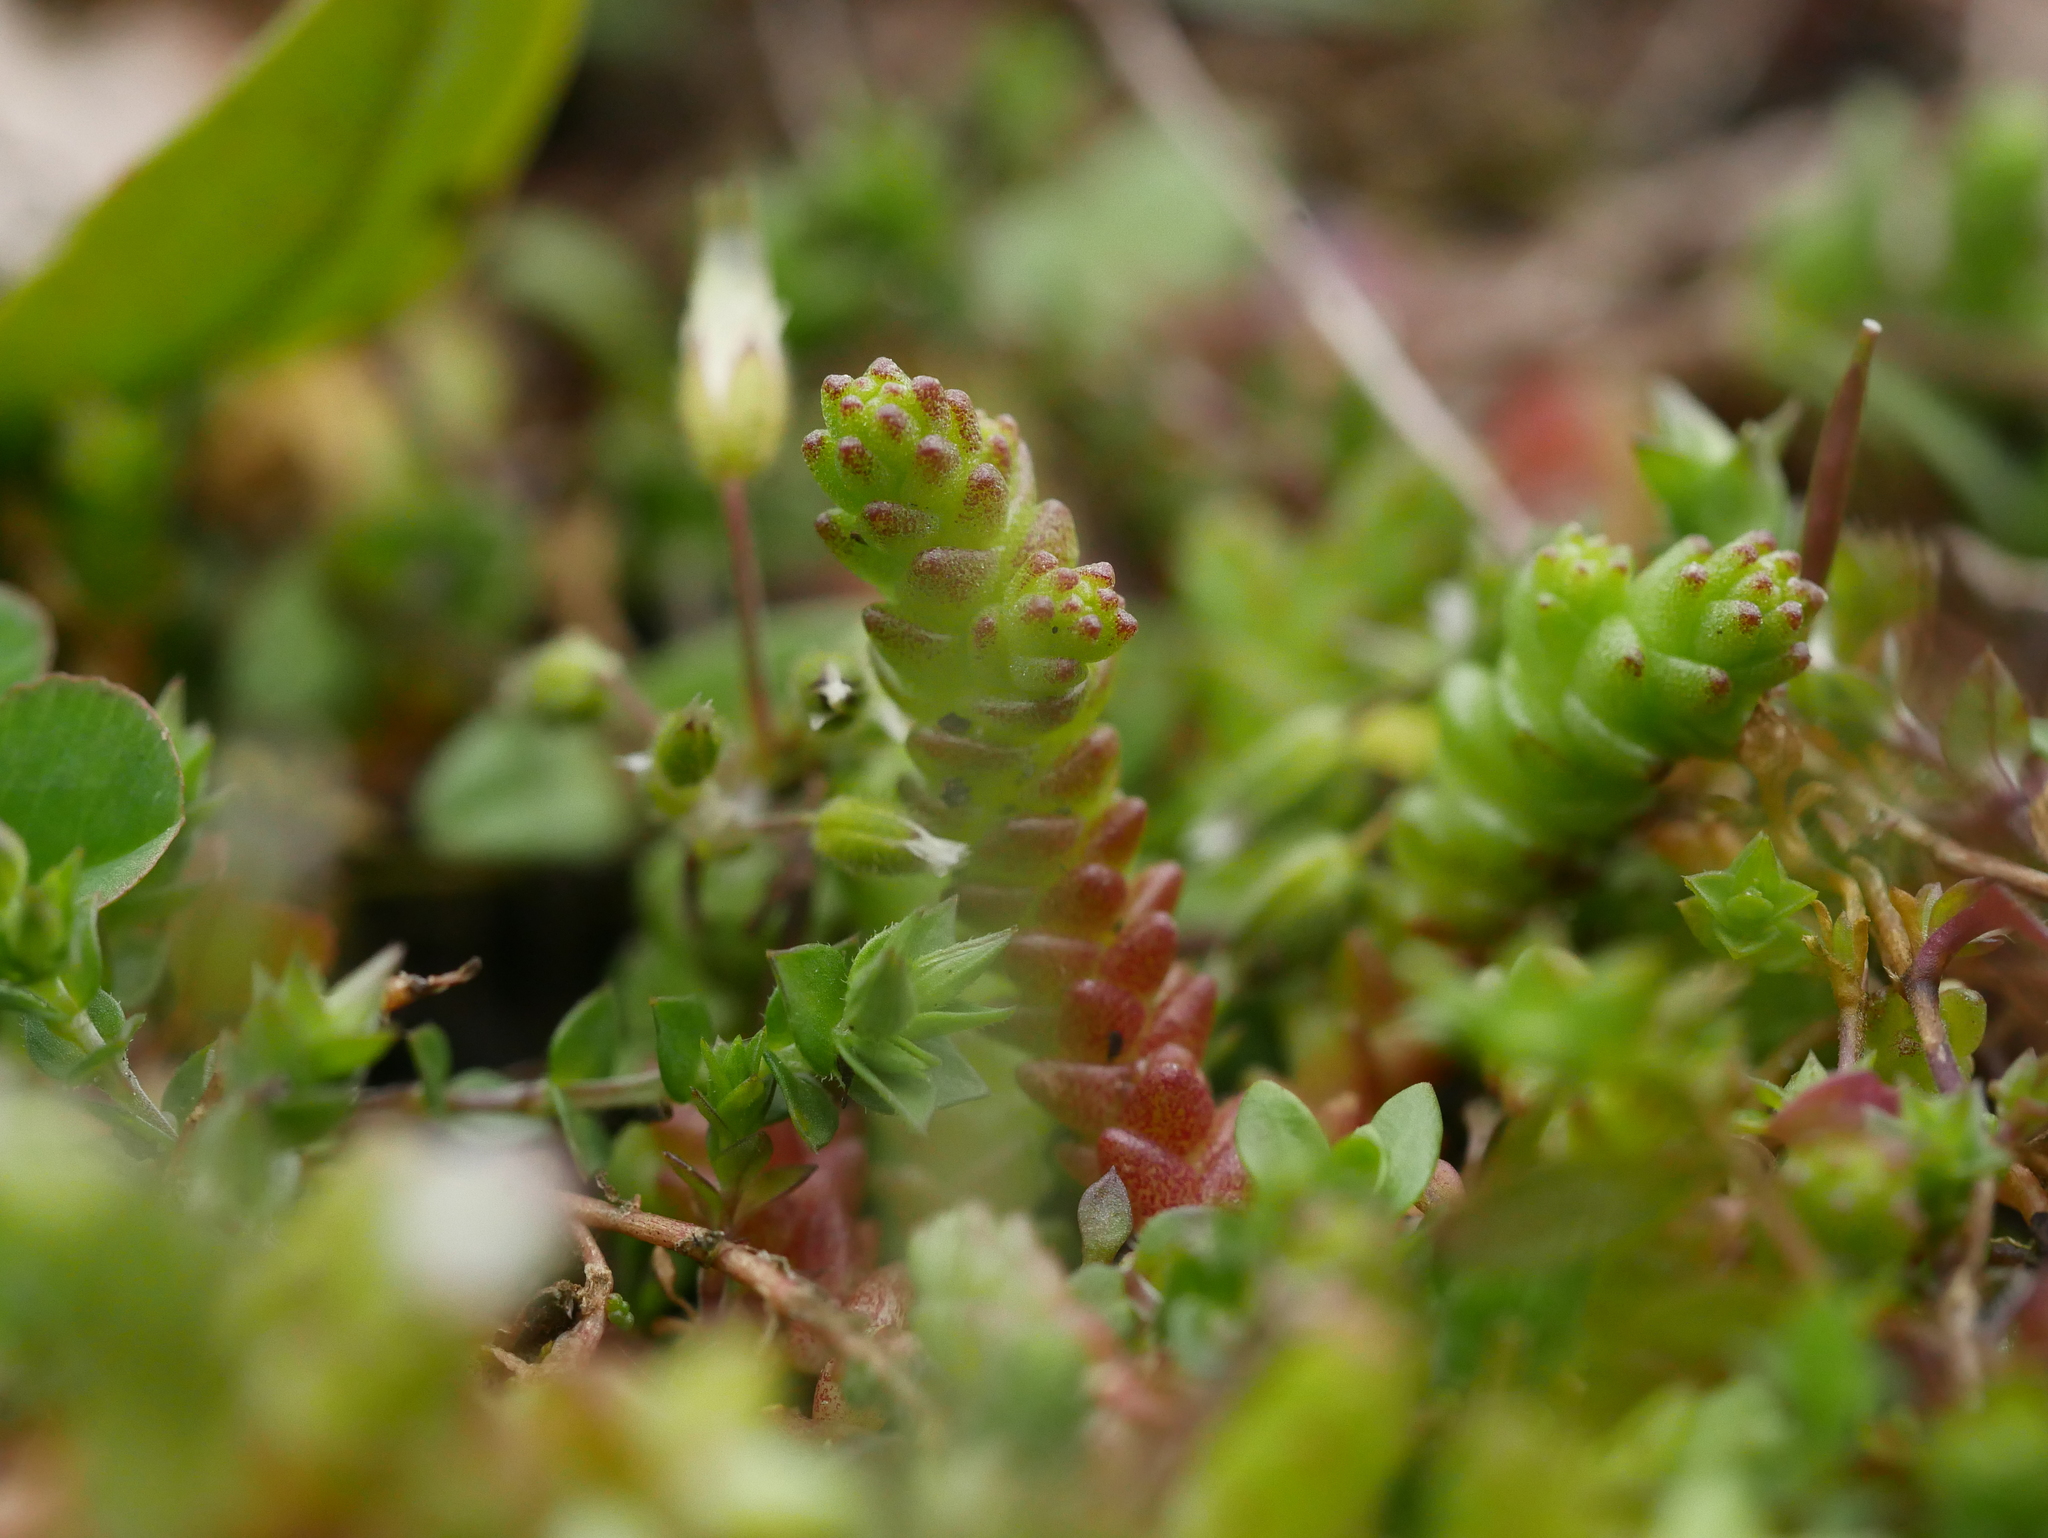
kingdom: Plantae
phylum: Tracheophyta
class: Magnoliopsida
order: Saxifragales
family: Crassulaceae
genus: Sedum
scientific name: Sedum acre
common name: Biting stonecrop
